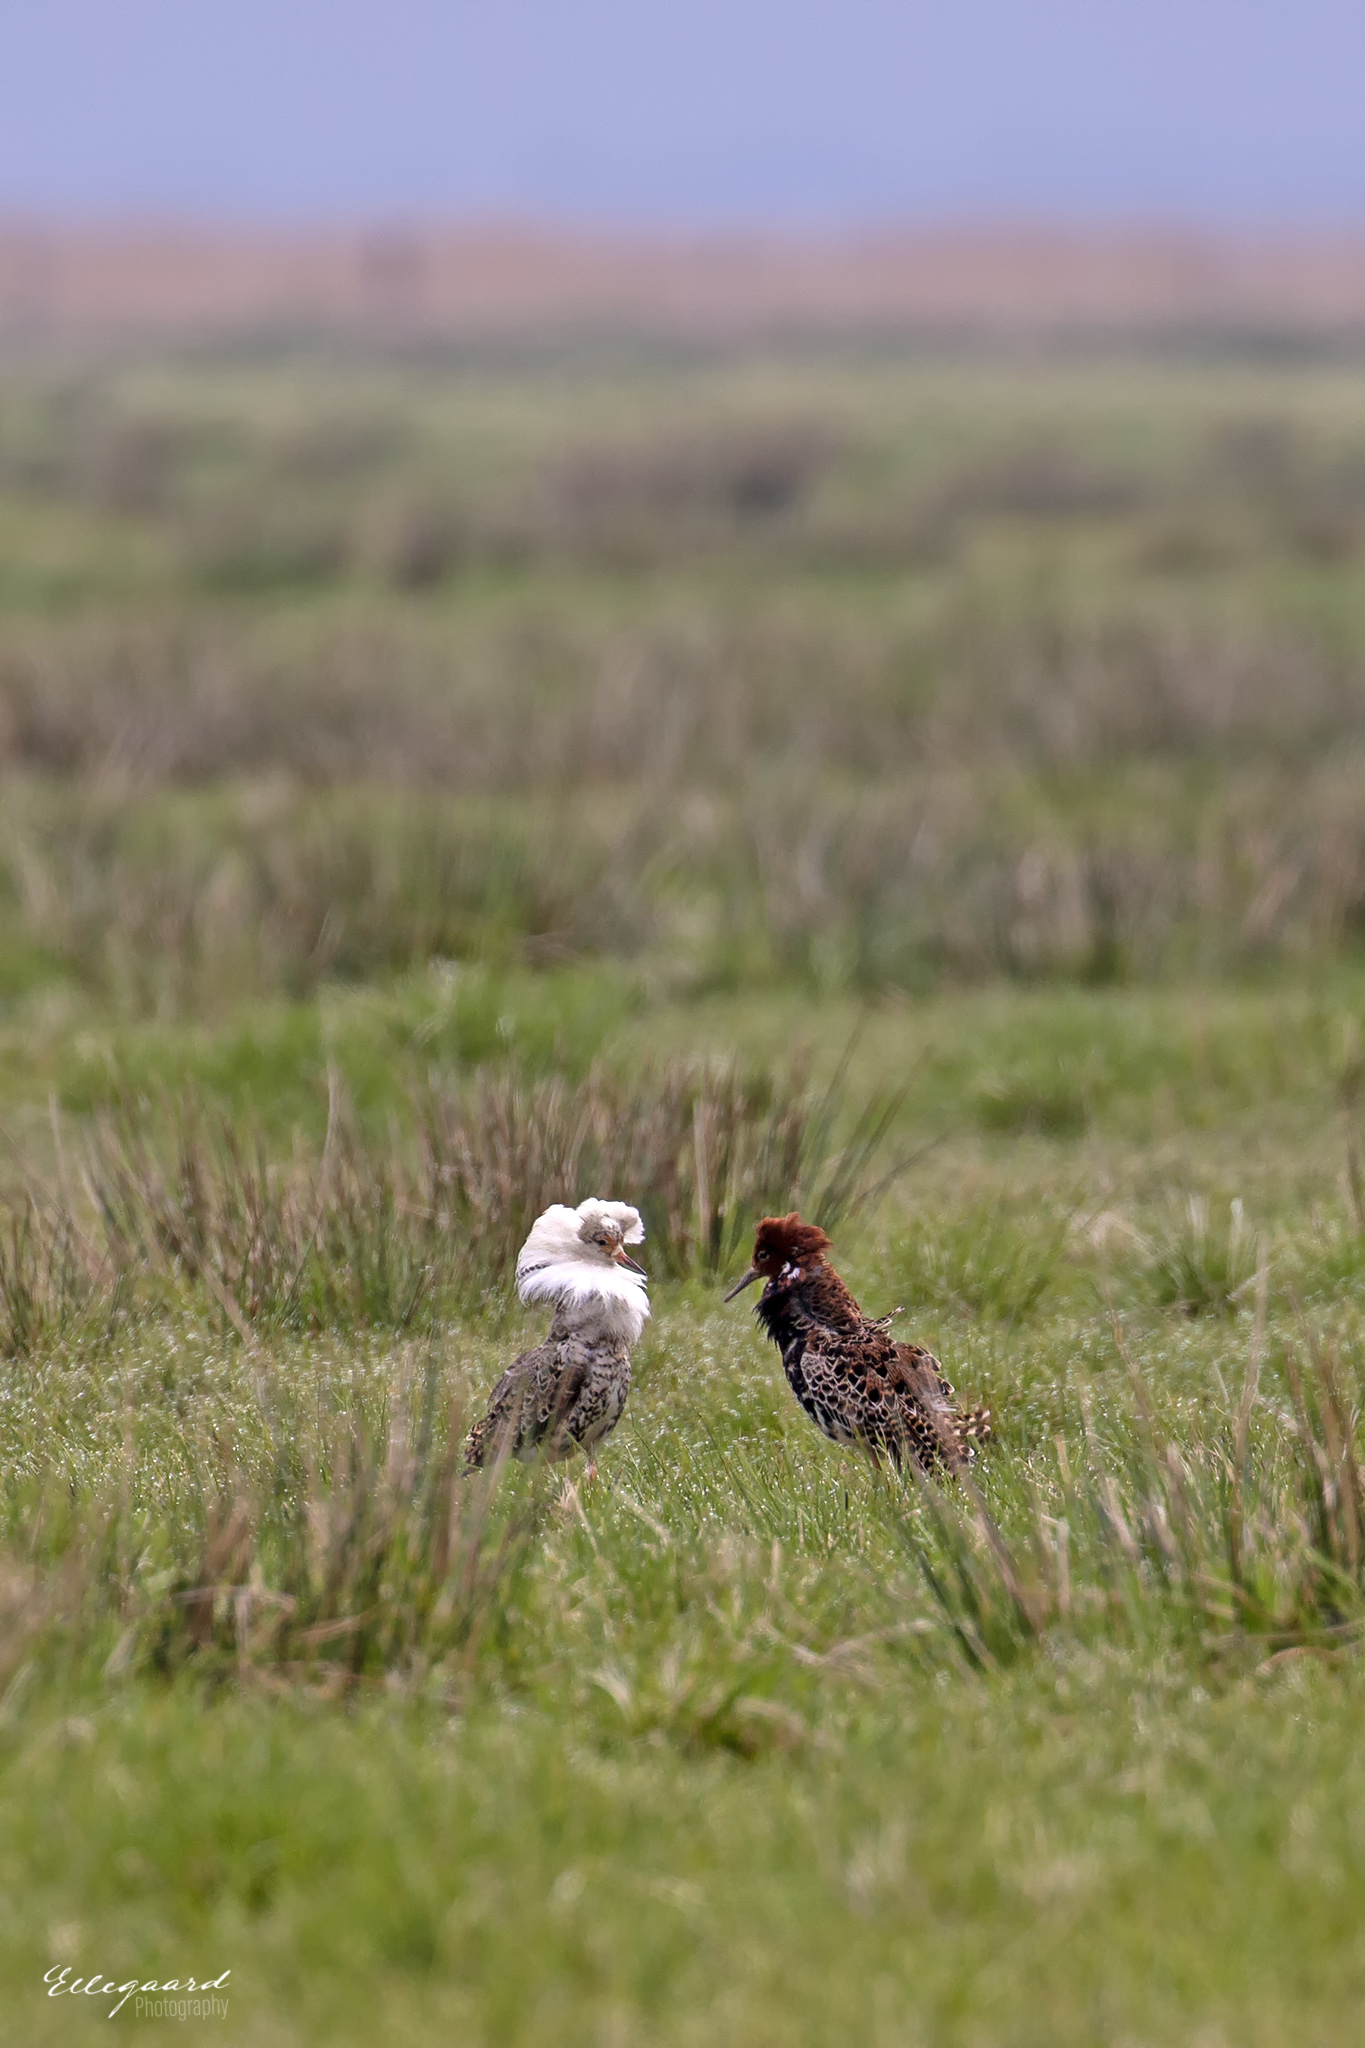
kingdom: Animalia
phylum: Chordata
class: Aves
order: Charadriiformes
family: Scolopacidae
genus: Calidris
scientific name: Calidris pugnax
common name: Ruff
